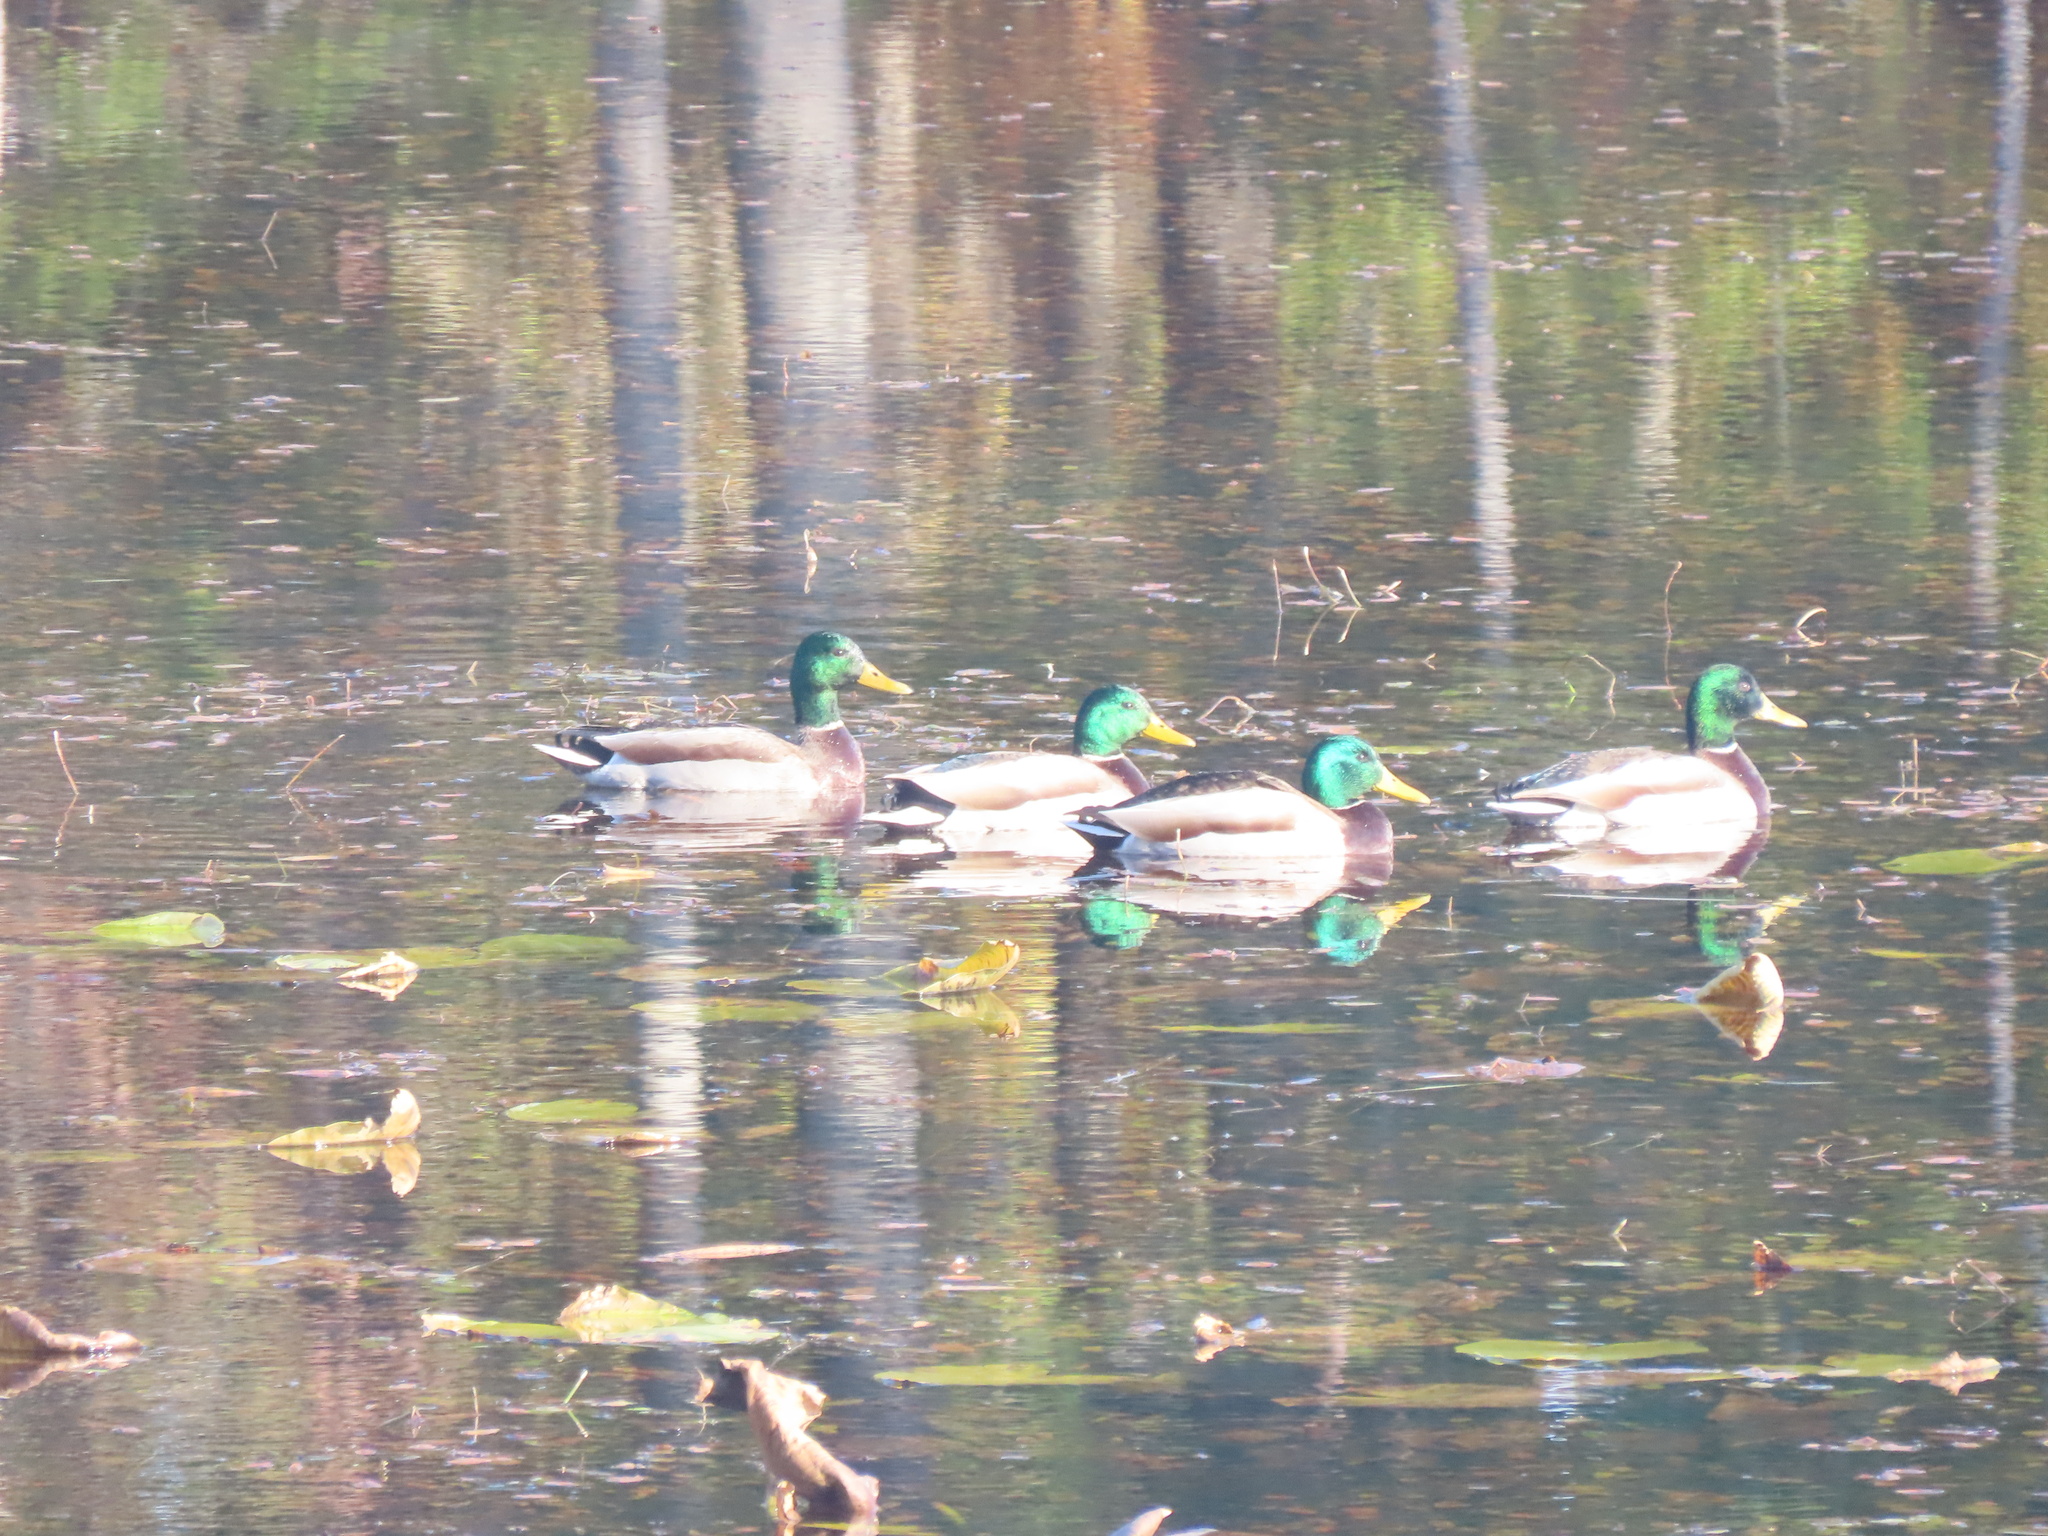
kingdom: Animalia
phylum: Chordata
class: Aves
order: Anseriformes
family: Anatidae
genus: Anas
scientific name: Anas platyrhynchos
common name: Mallard
